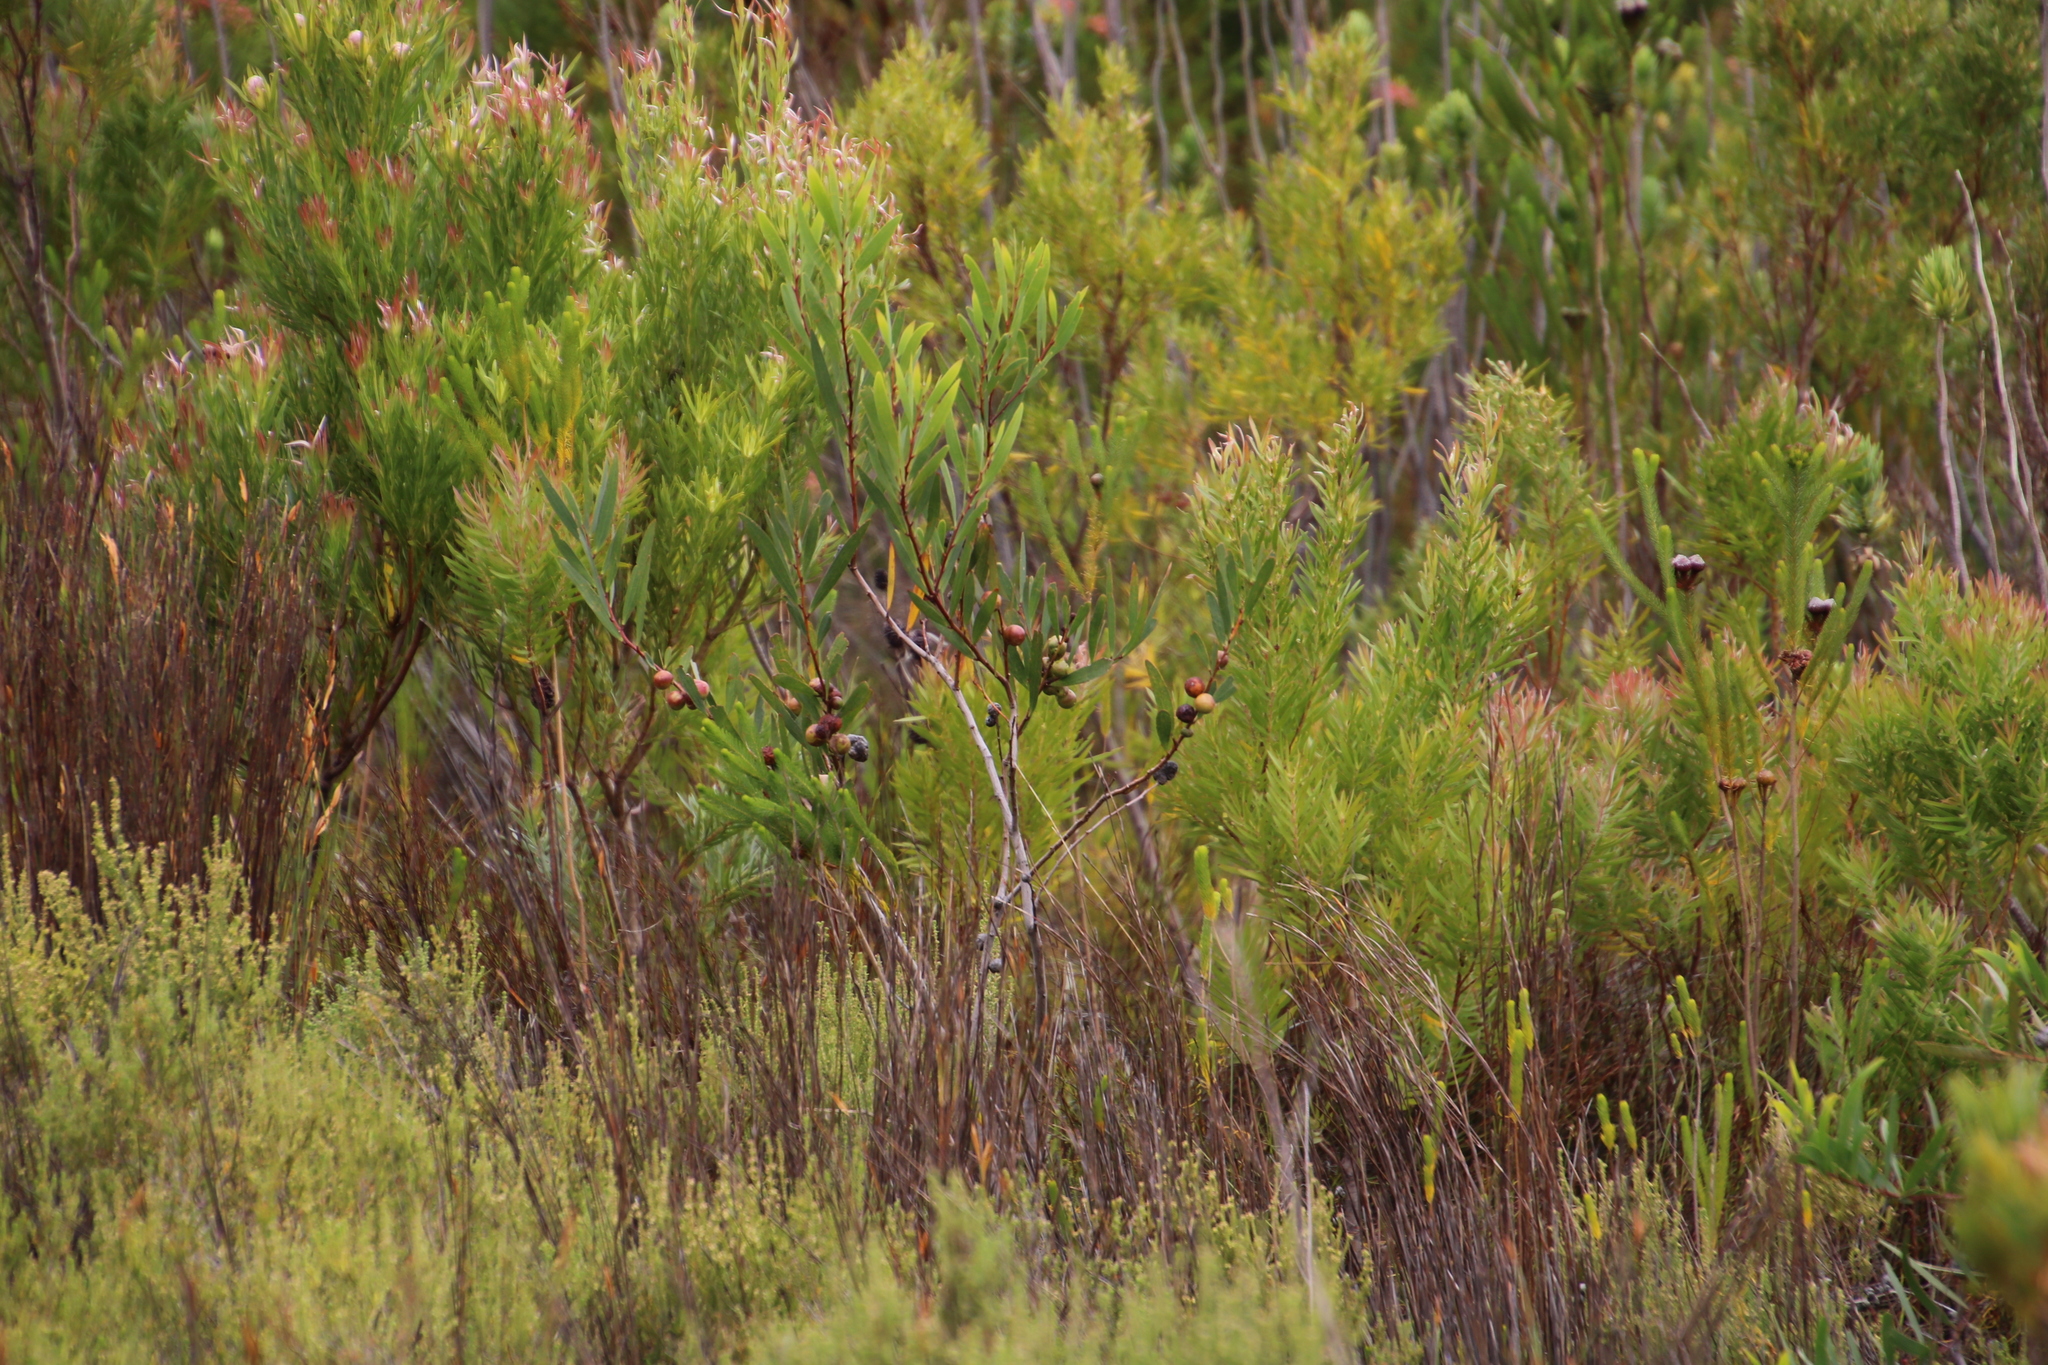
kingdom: Plantae
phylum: Tracheophyta
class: Magnoliopsida
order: Fabales
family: Fabaceae
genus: Acacia
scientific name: Acacia longifolia
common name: Sydney golden wattle
